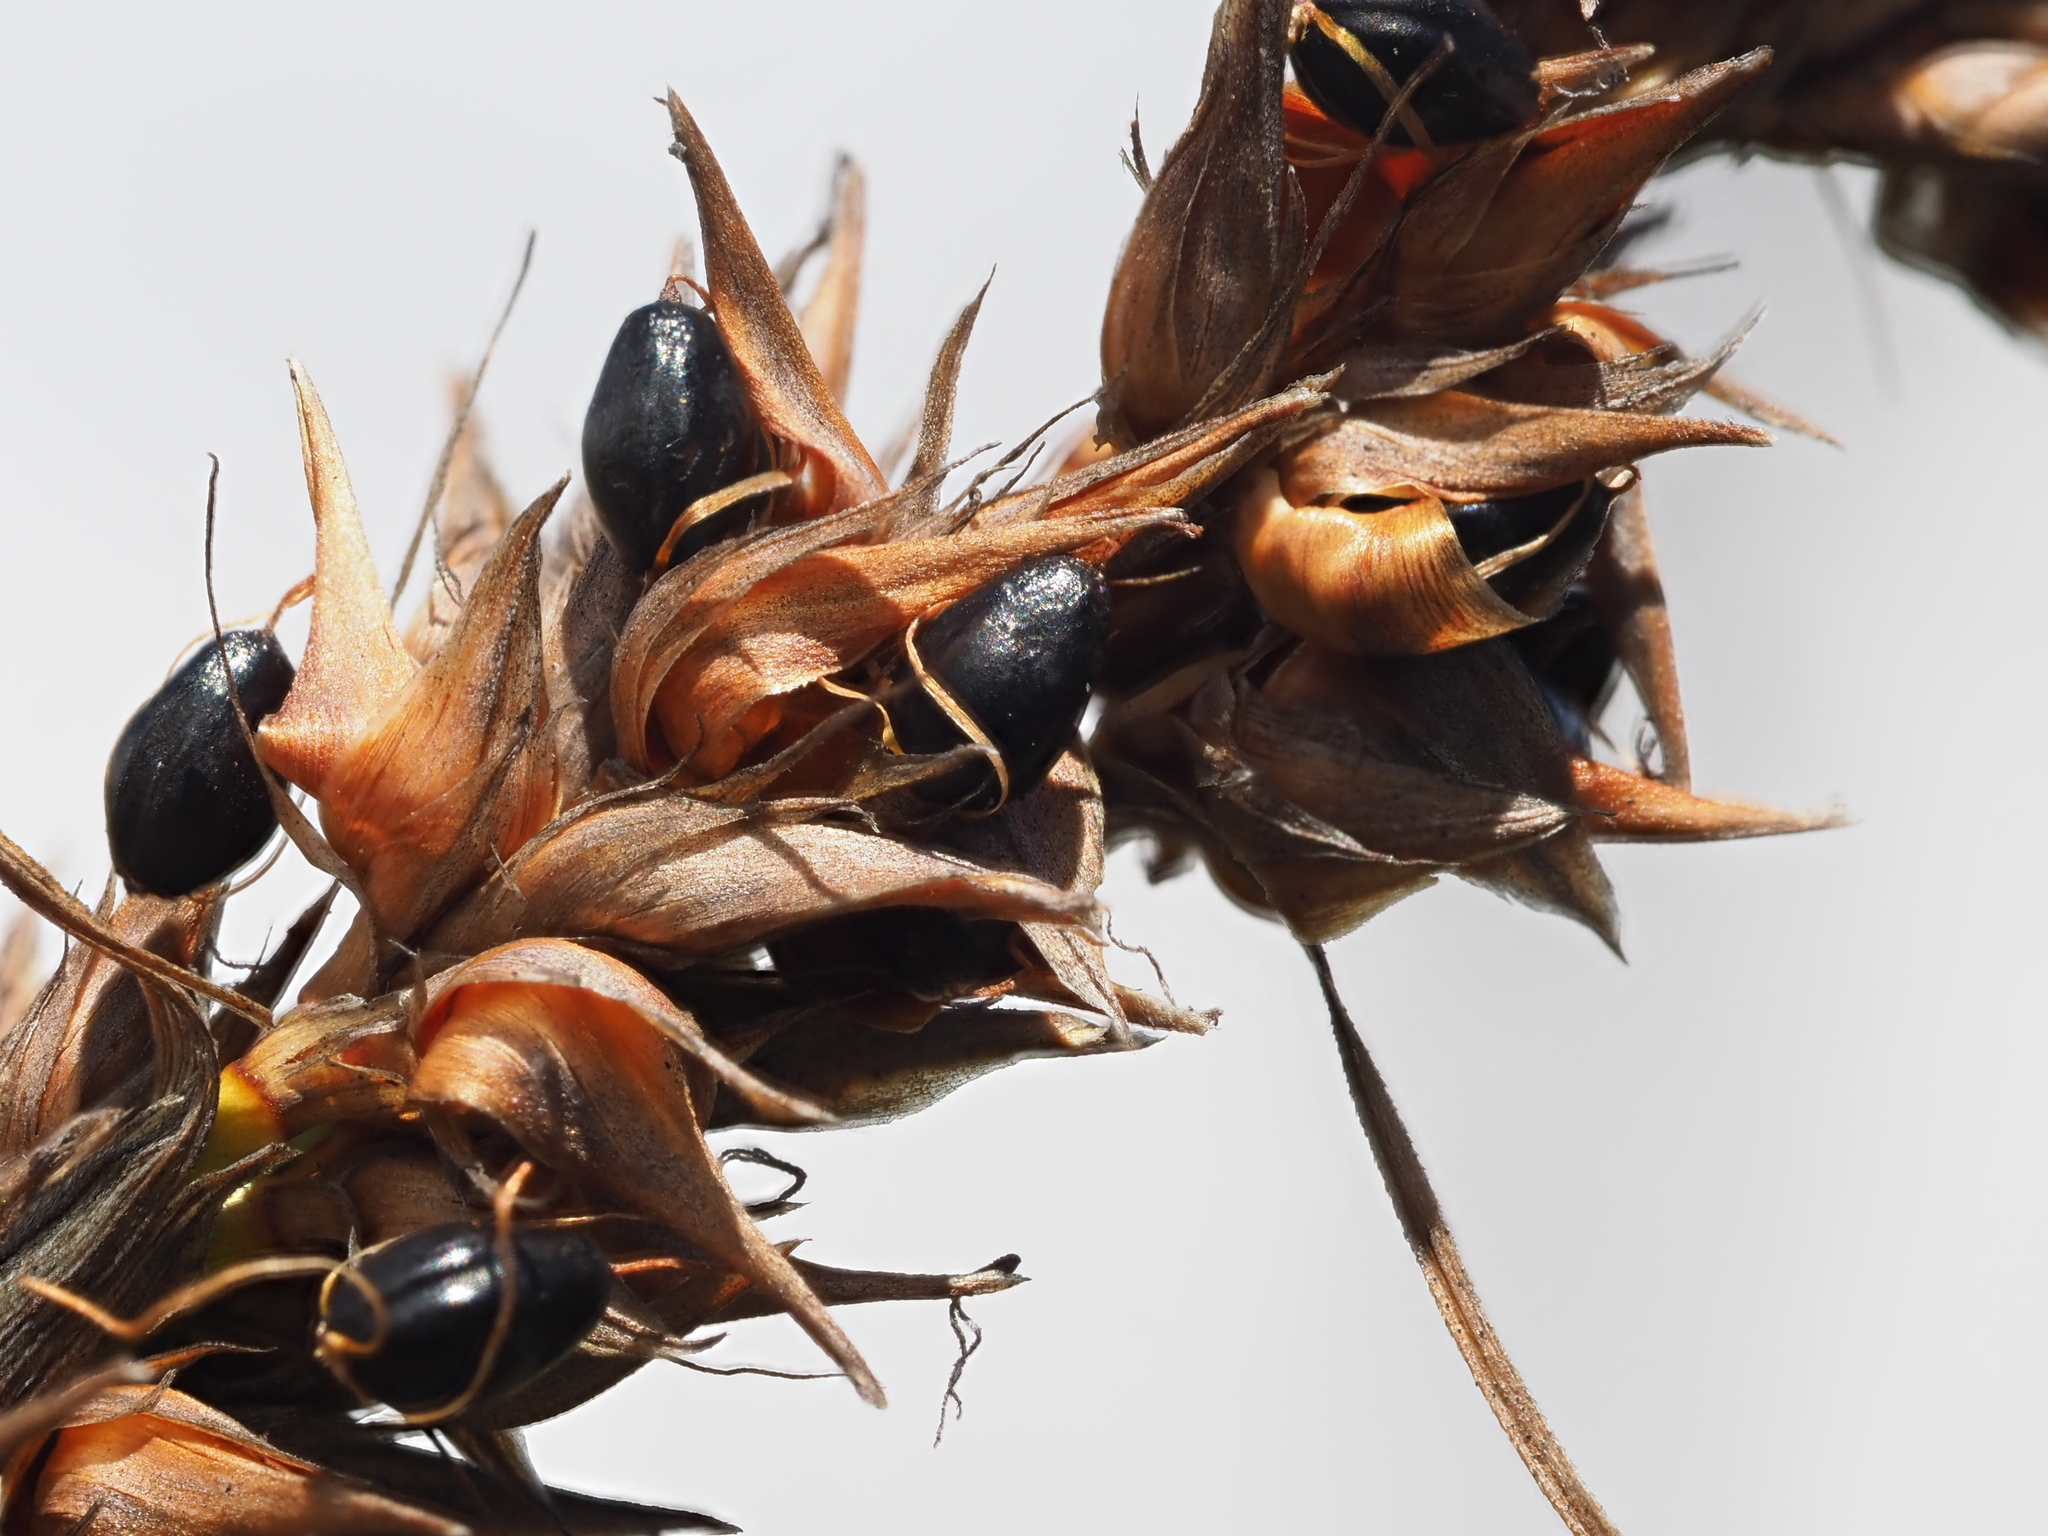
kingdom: Plantae
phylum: Tracheophyta
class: Liliopsida
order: Poales
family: Cyperaceae
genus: Morelotia
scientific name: Morelotia gahniiformis
